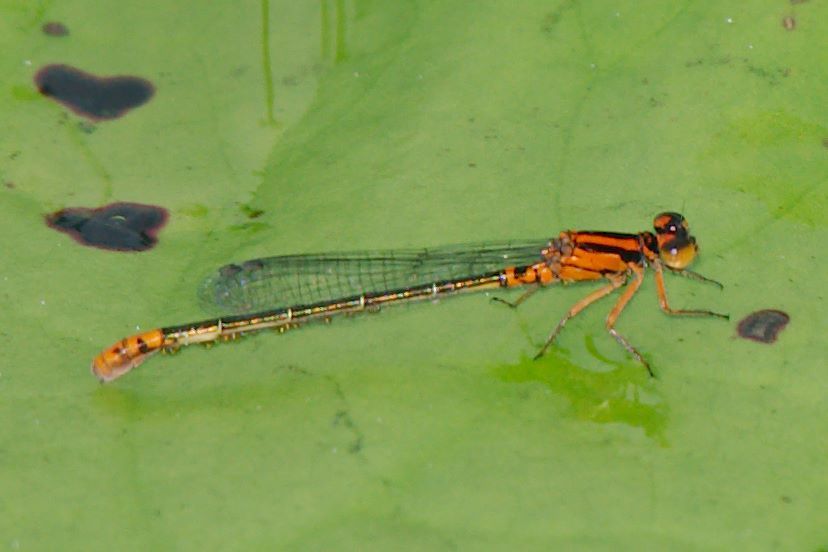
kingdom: Animalia
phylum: Arthropoda
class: Insecta
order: Odonata
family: Coenagrionidae
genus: Ischnura
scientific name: Ischnura kellicotti
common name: Lilypad forktail
